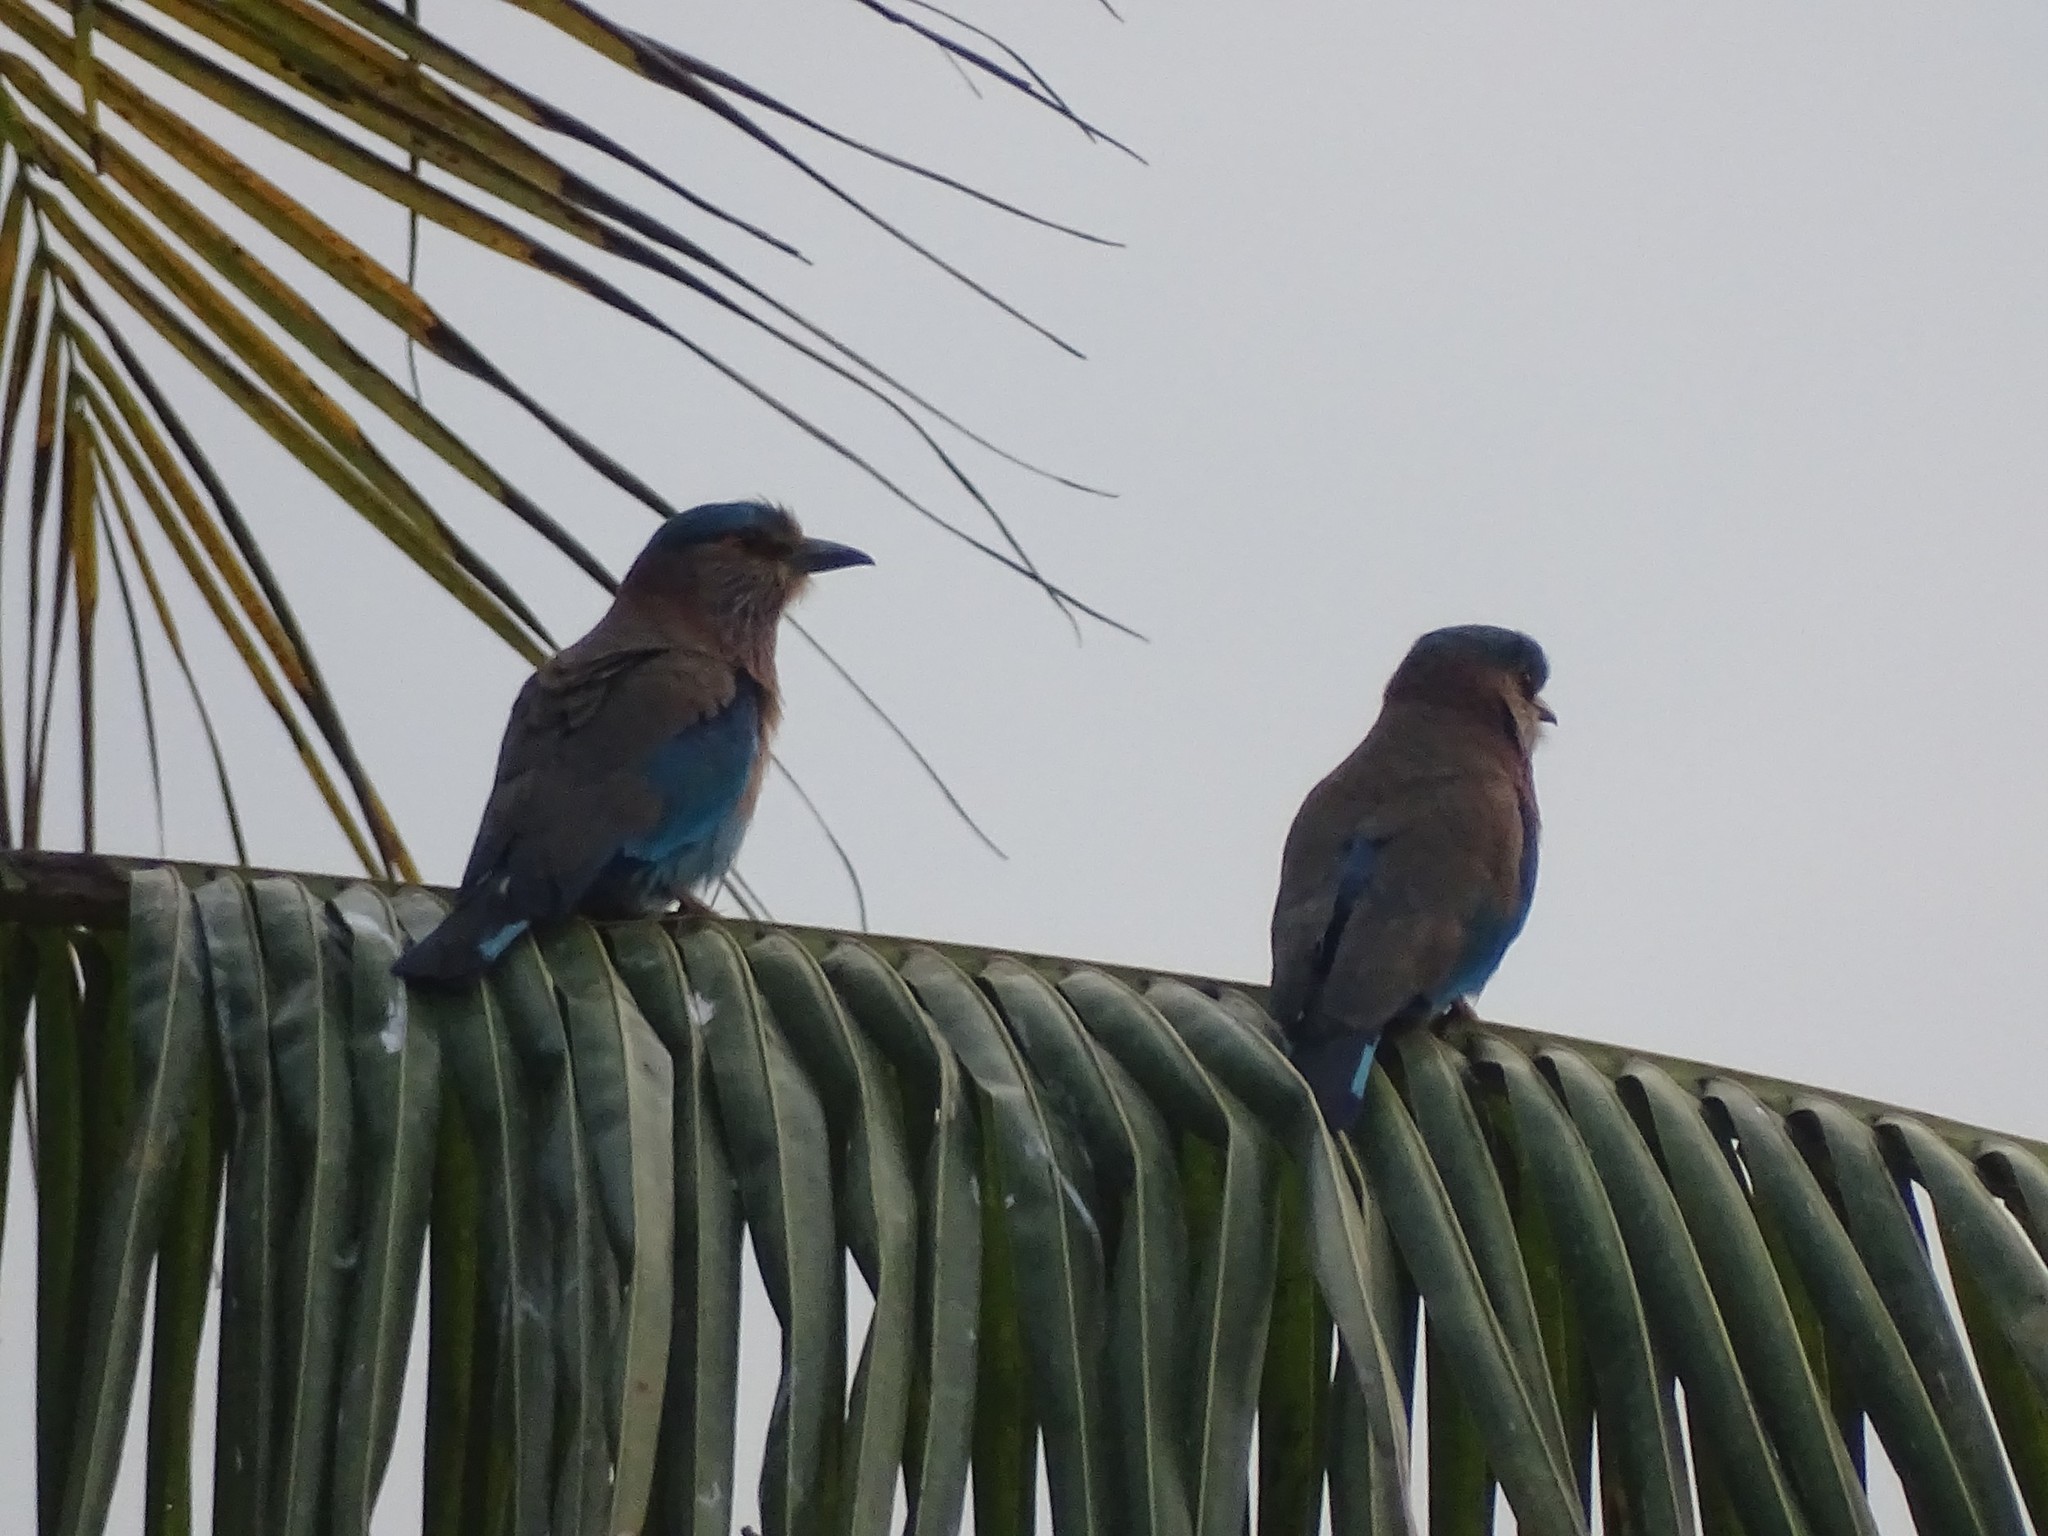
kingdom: Animalia
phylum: Chordata
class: Aves
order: Coraciiformes
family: Coraciidae
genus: Coracias
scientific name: Coracias benghalensis
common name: Indian roller
